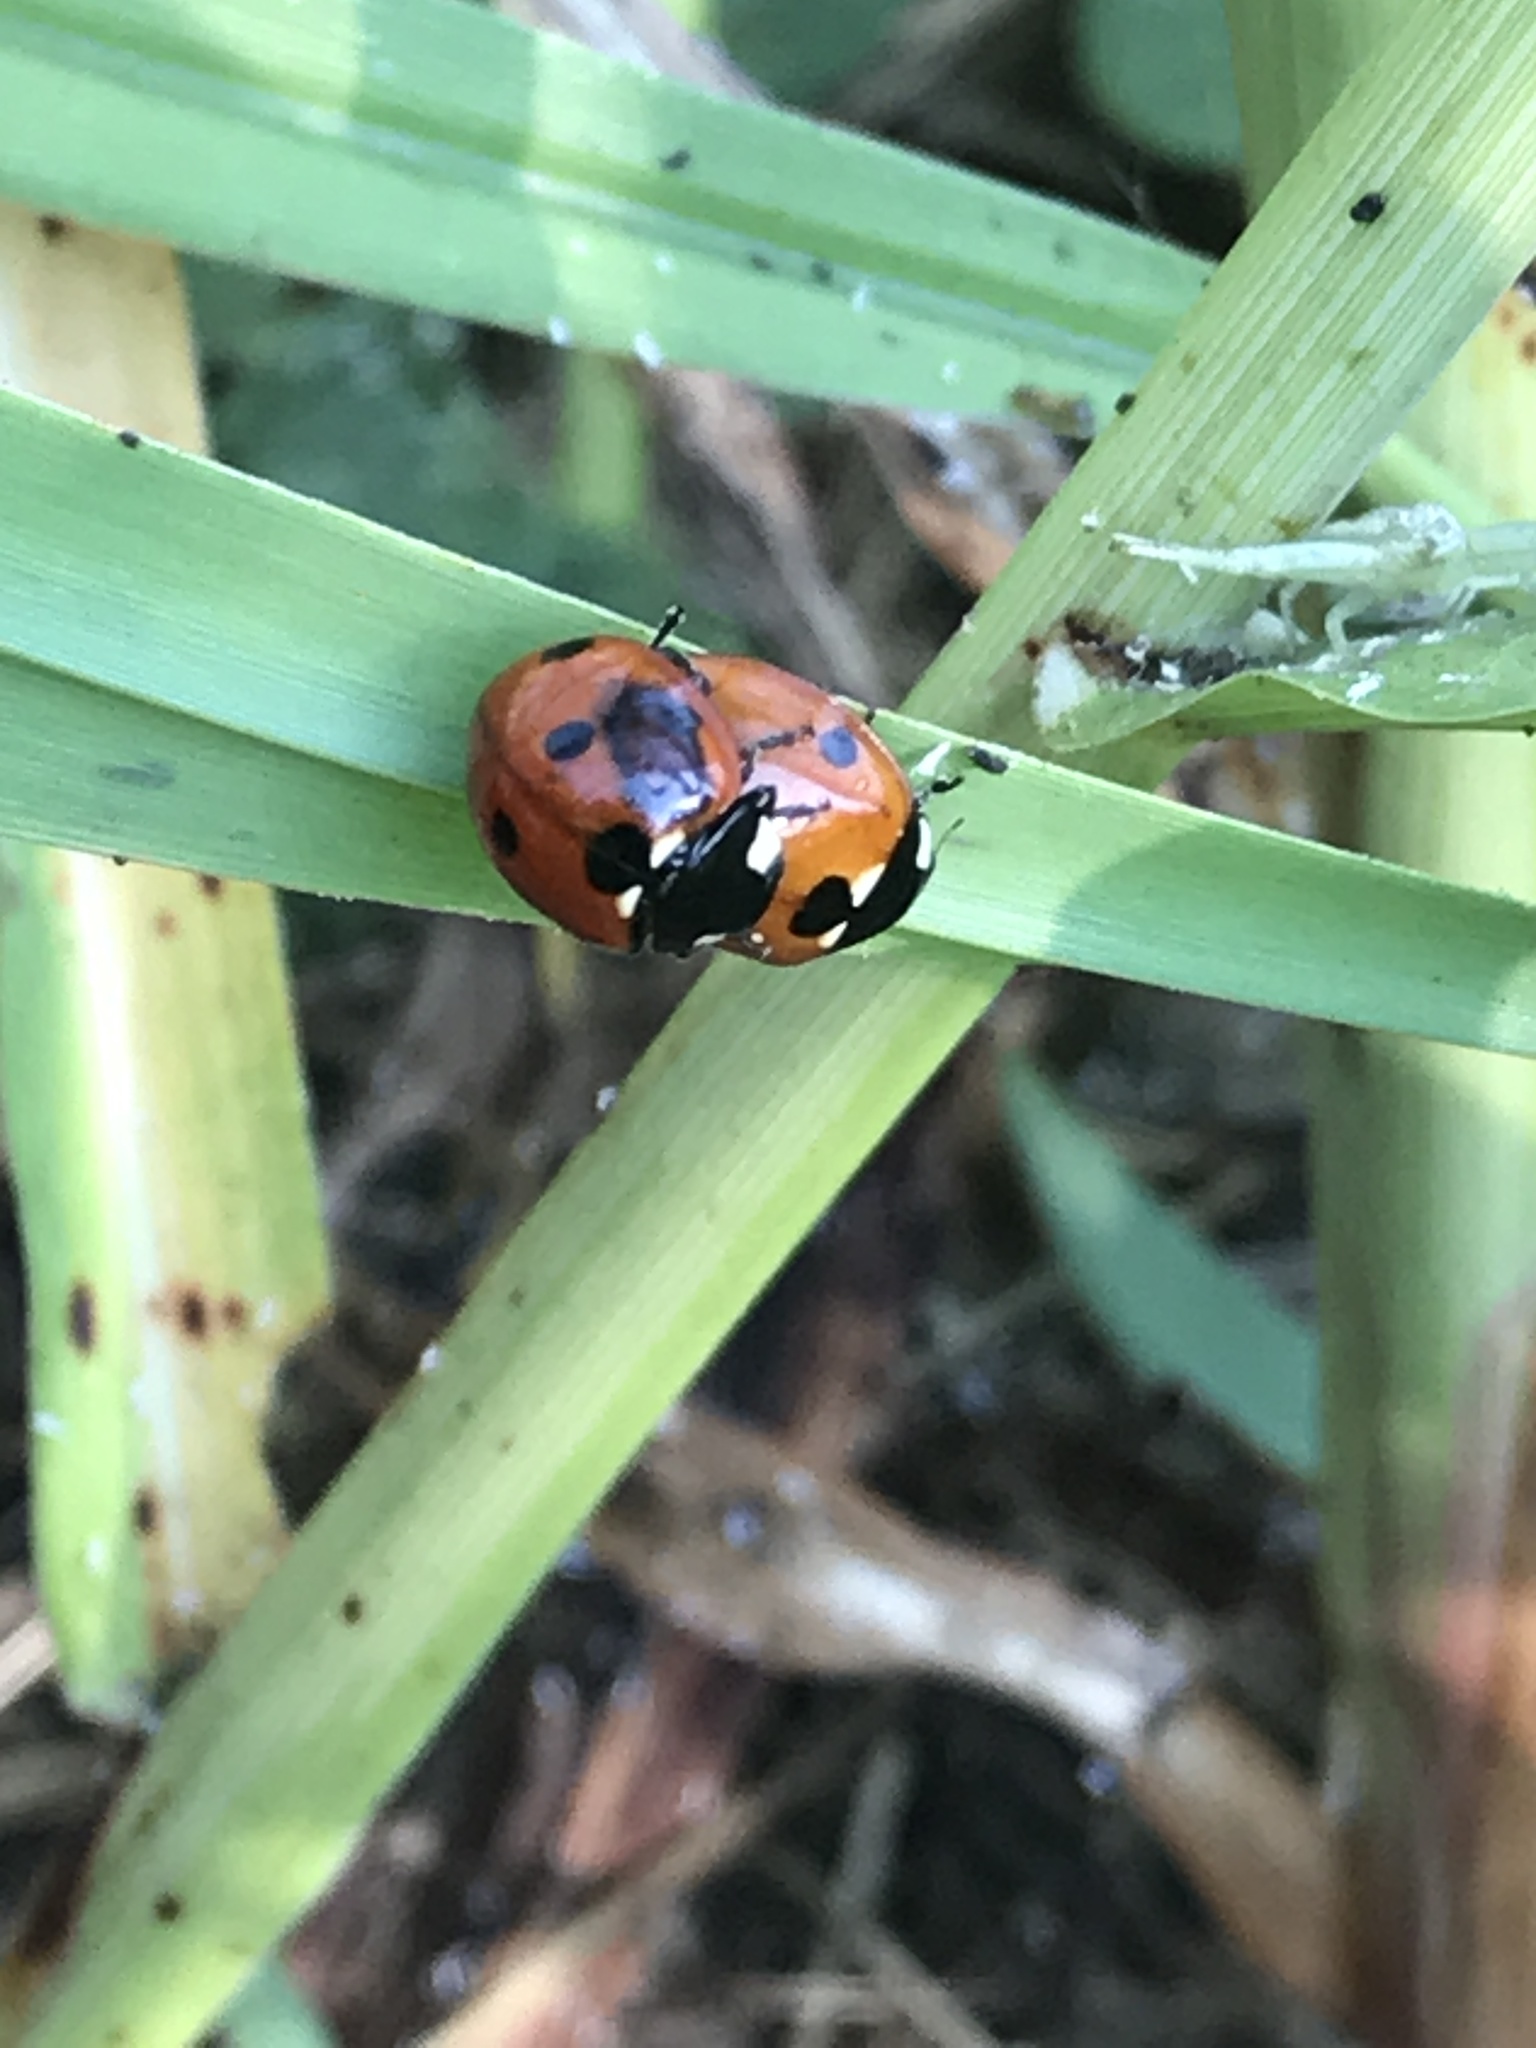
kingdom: Animalia
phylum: Arthropoda
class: Insecta
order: Coleoptera
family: Coccinellidae
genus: Coccinella
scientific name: Coccinella septempunctata
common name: Sevenspotted lady beetle
